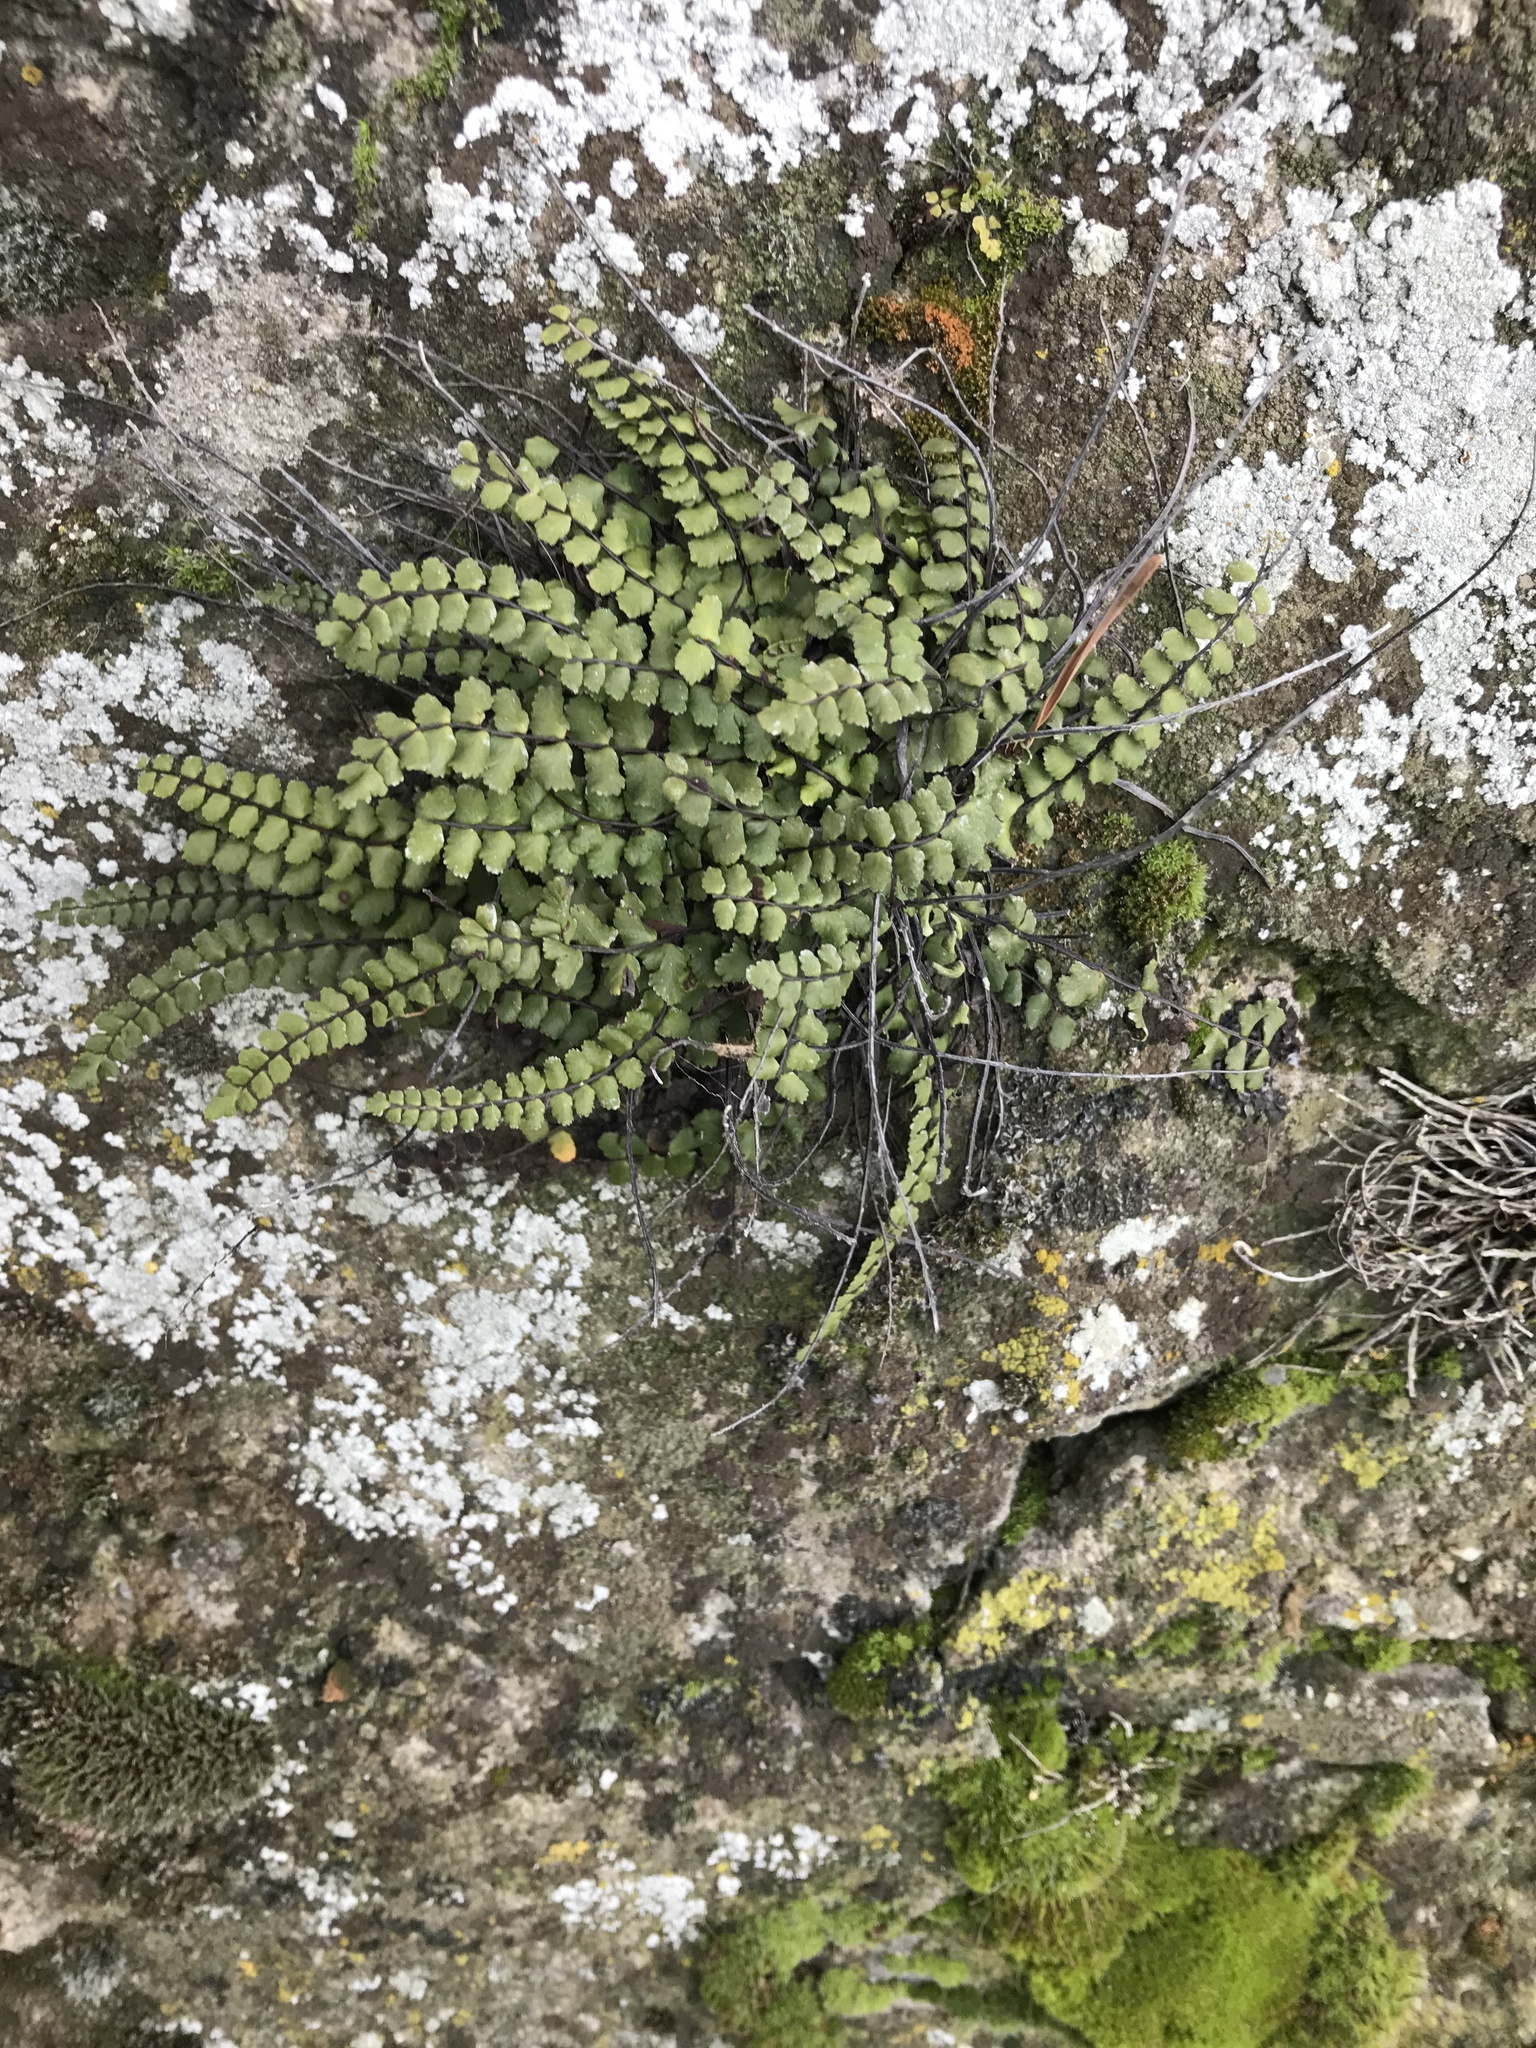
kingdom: Plantae
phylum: Tracheophyta
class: Polypodiopsida
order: Polypodiales
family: Aspleniaceae
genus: Asplenium
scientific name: Asplenium trichomanes
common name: Maidenhair spleenwort
